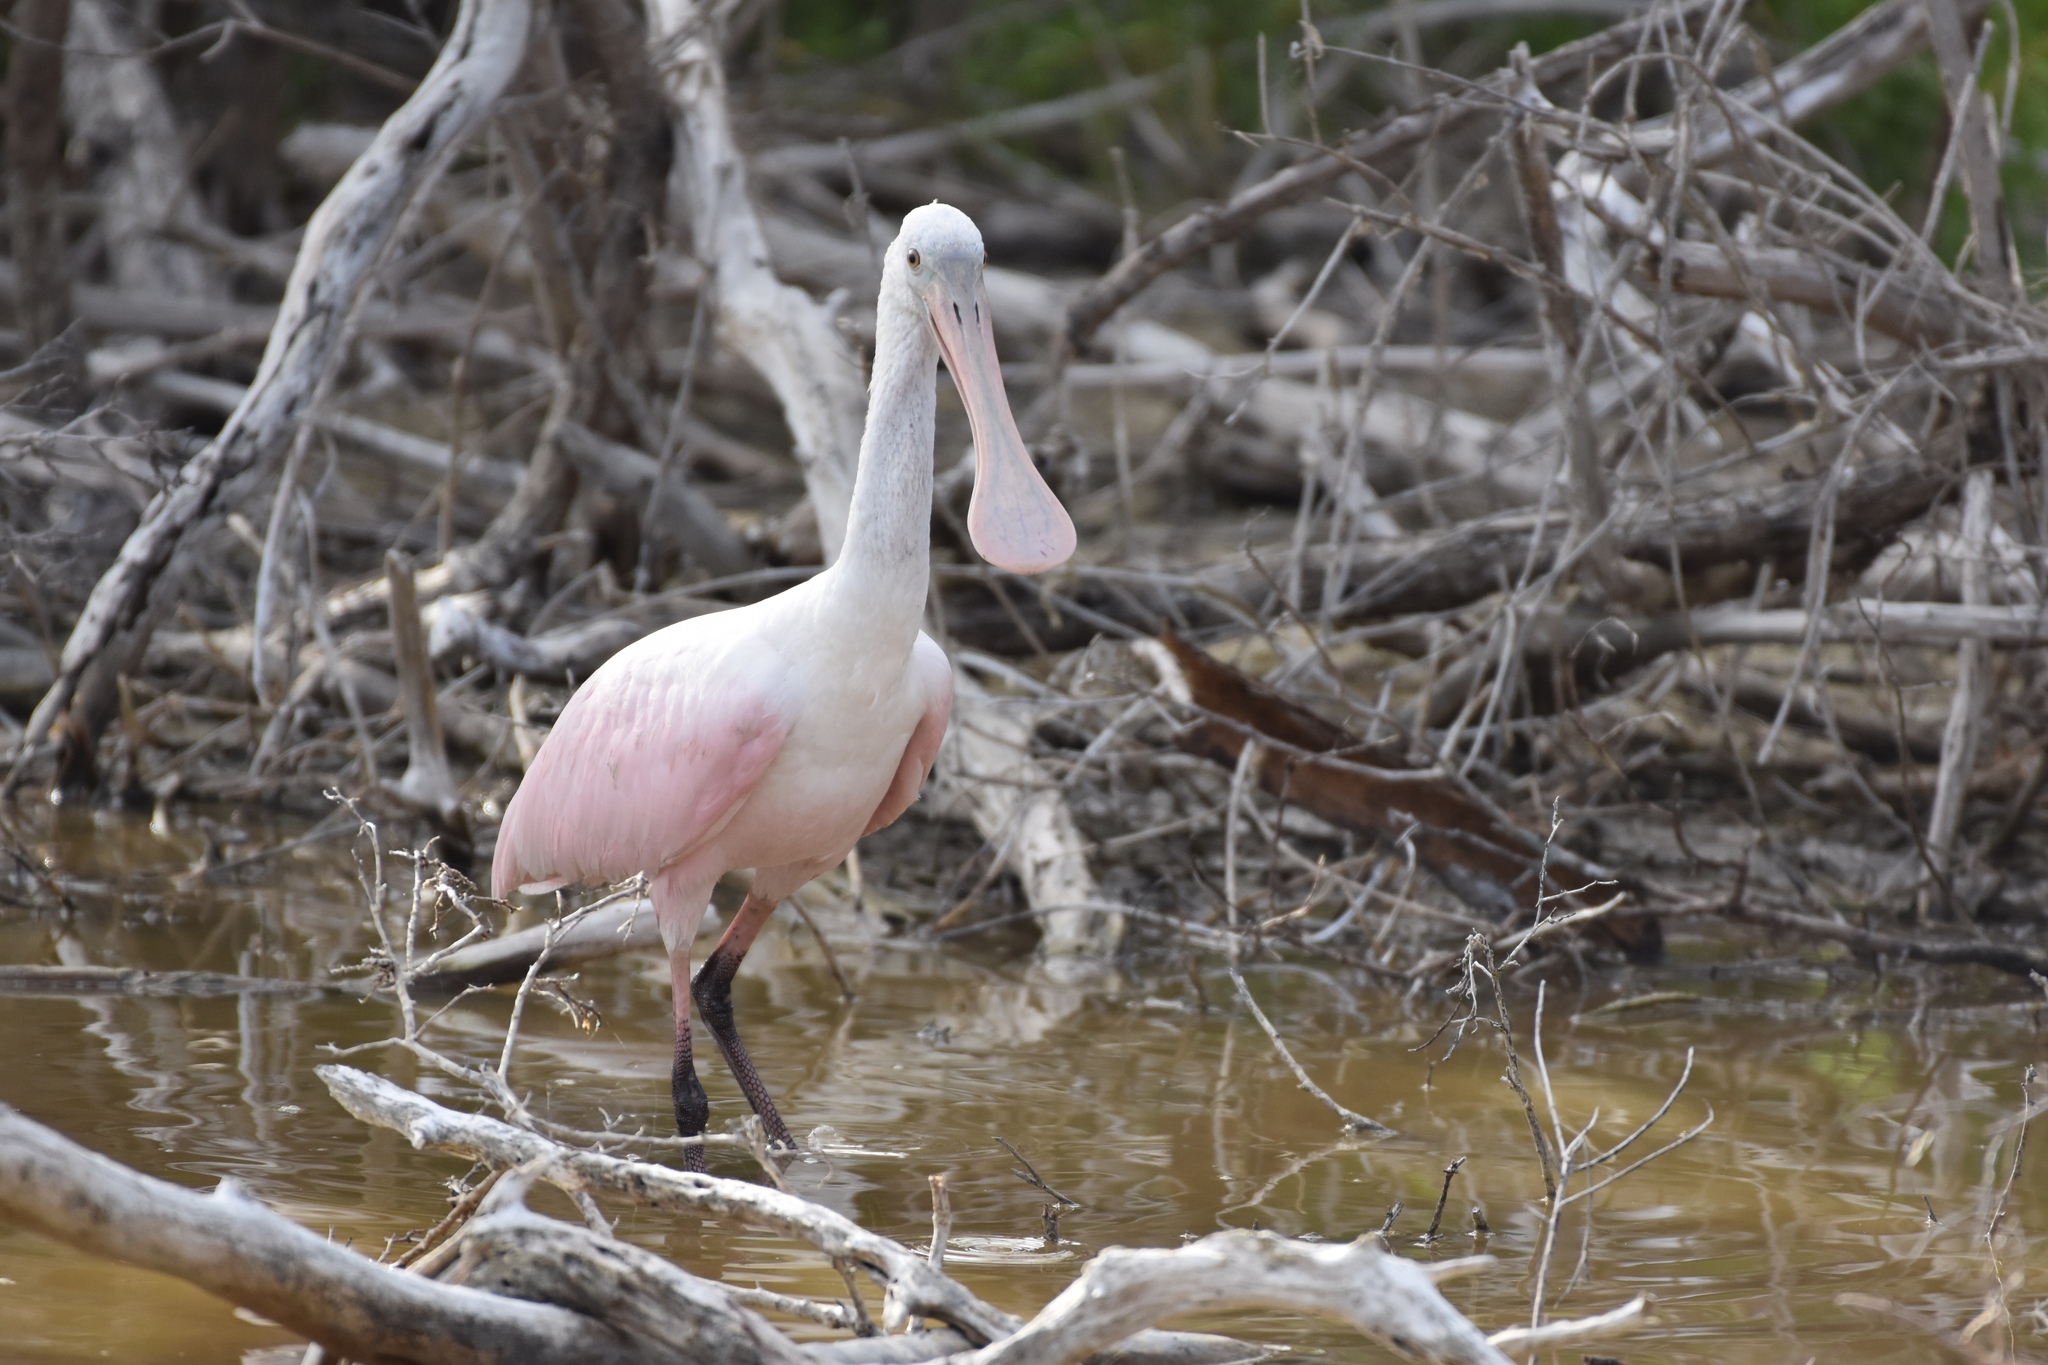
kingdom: Animalia
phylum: Chordata
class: Aves
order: Pelecaniformes
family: Threskiornithidae
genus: Platalea
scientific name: Platalea ajaja
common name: Roseate spoonbill
